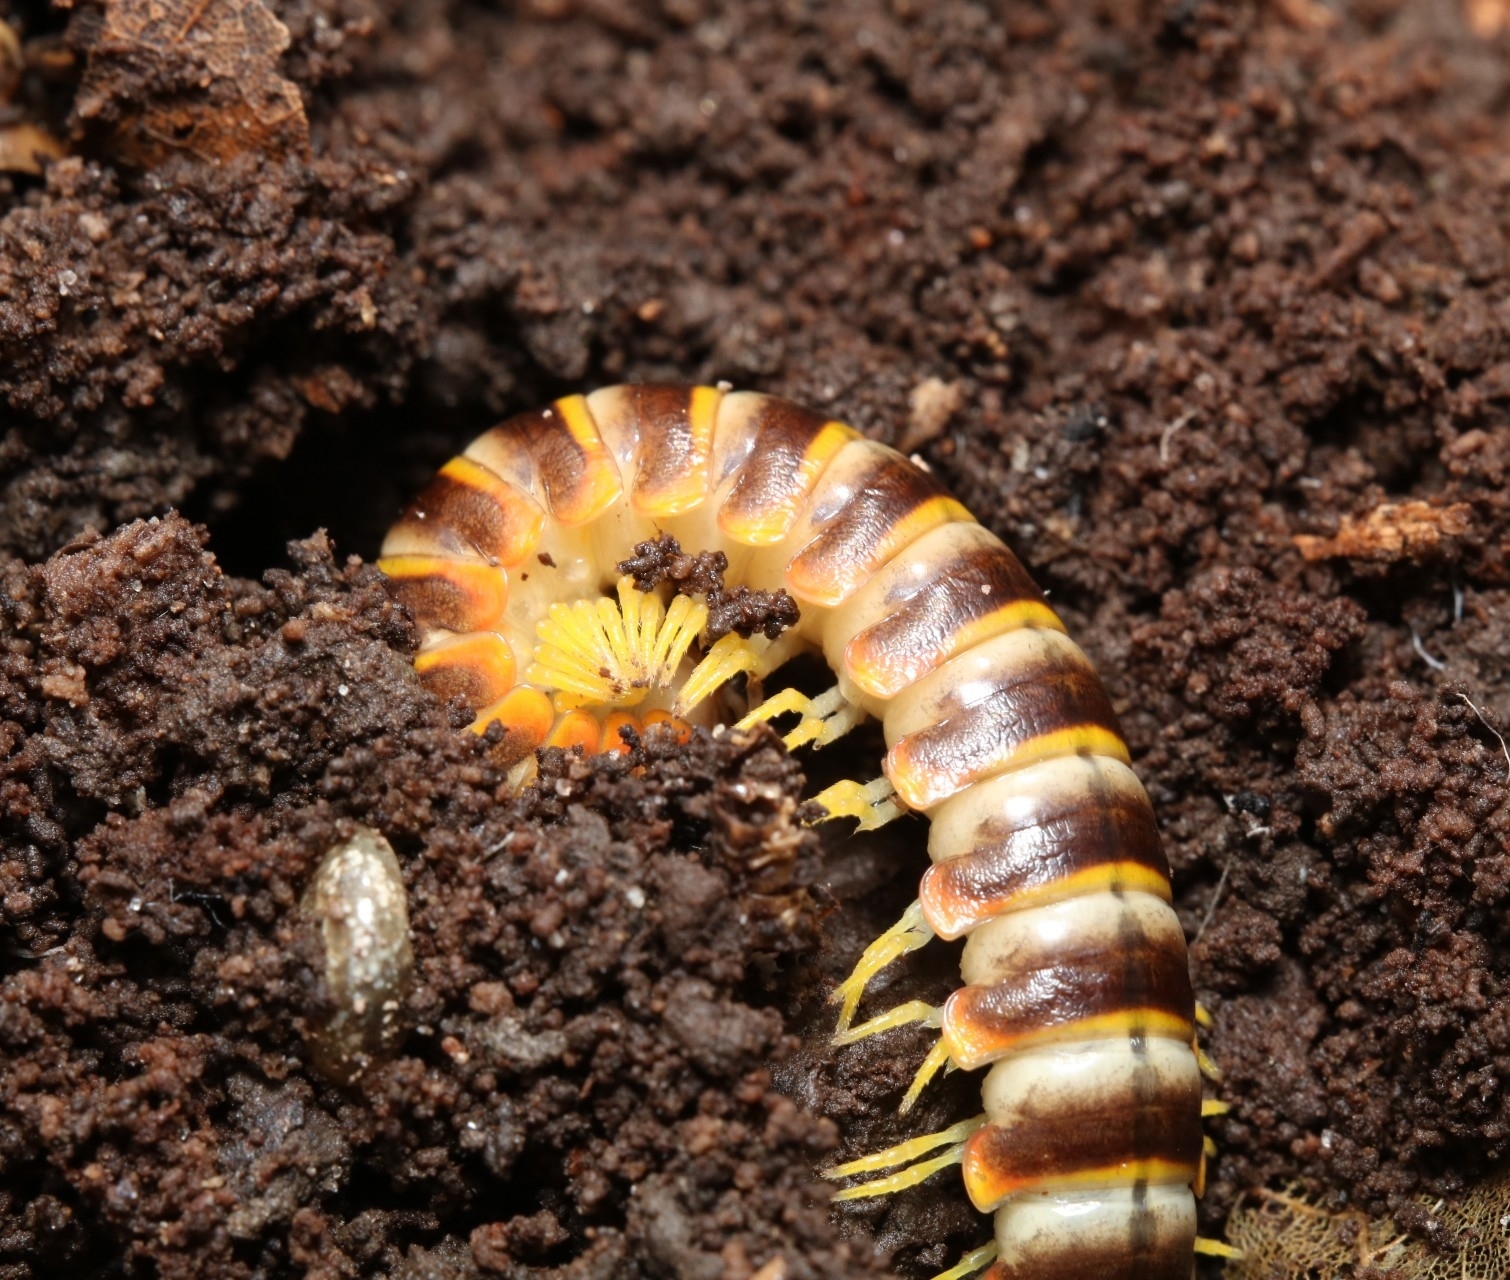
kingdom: Animalia
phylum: Arthropoda
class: Diplopoda
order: Polydesmida
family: Xystodesmidae
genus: Apheloria
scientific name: Apheloria virginiensis
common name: Black-and-gold flat millipede
